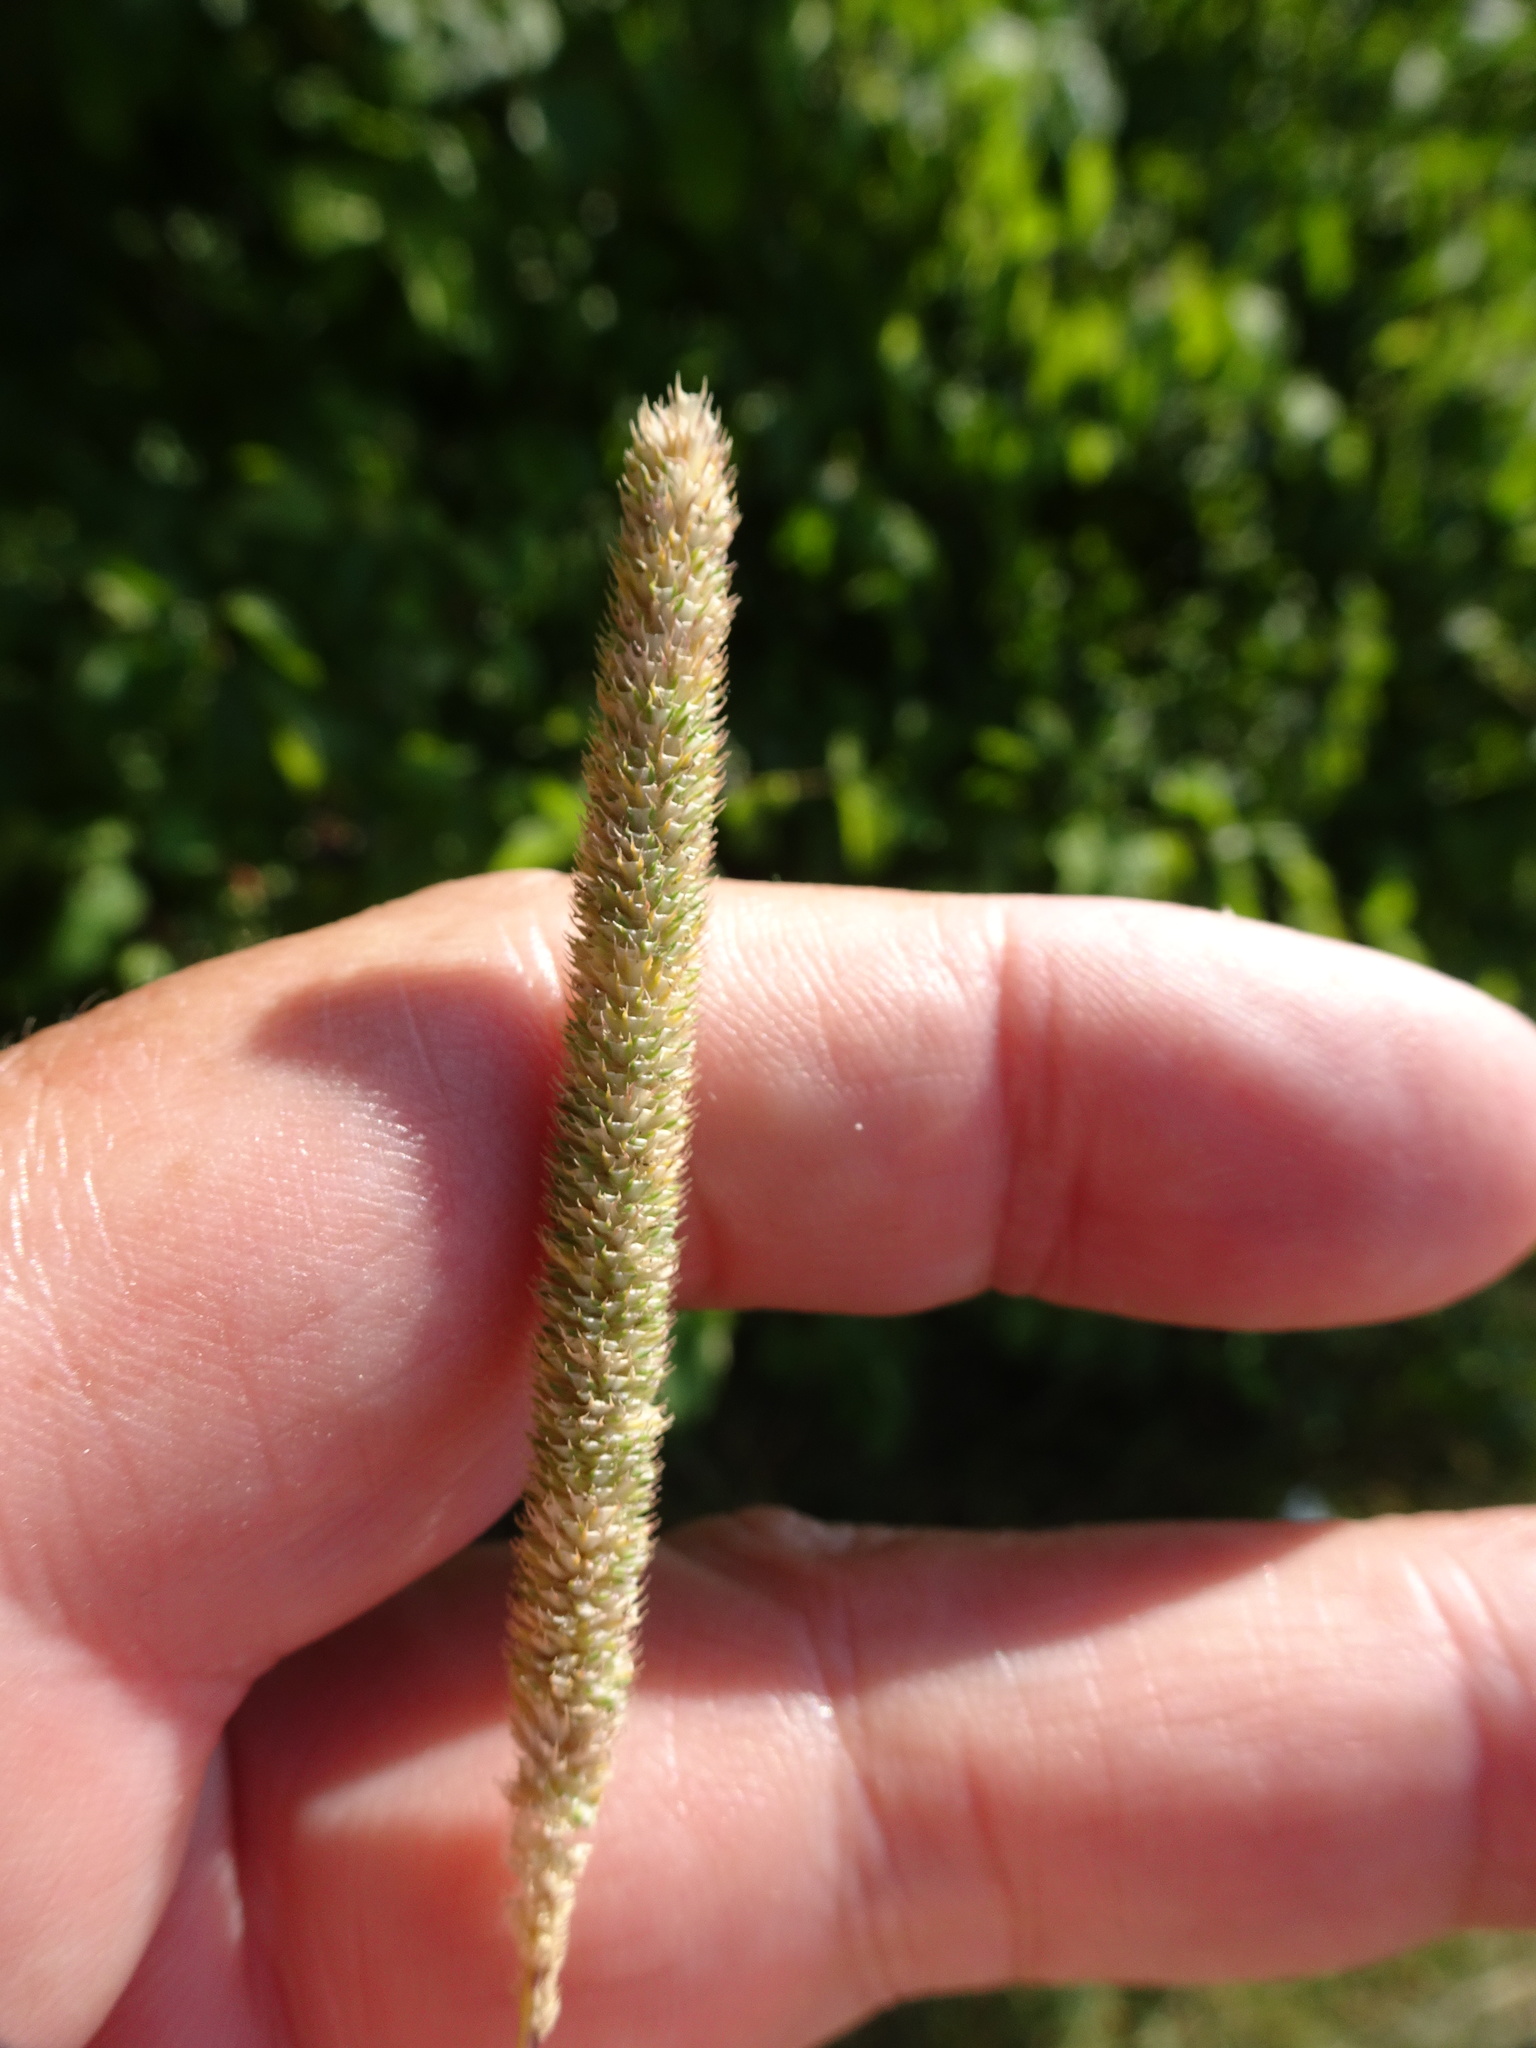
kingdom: Plantae
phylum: Tracheophyta
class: Liliopsida
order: Poales
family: Poaceae
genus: Phleum
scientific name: Phleum pratense
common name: Timothy grass
